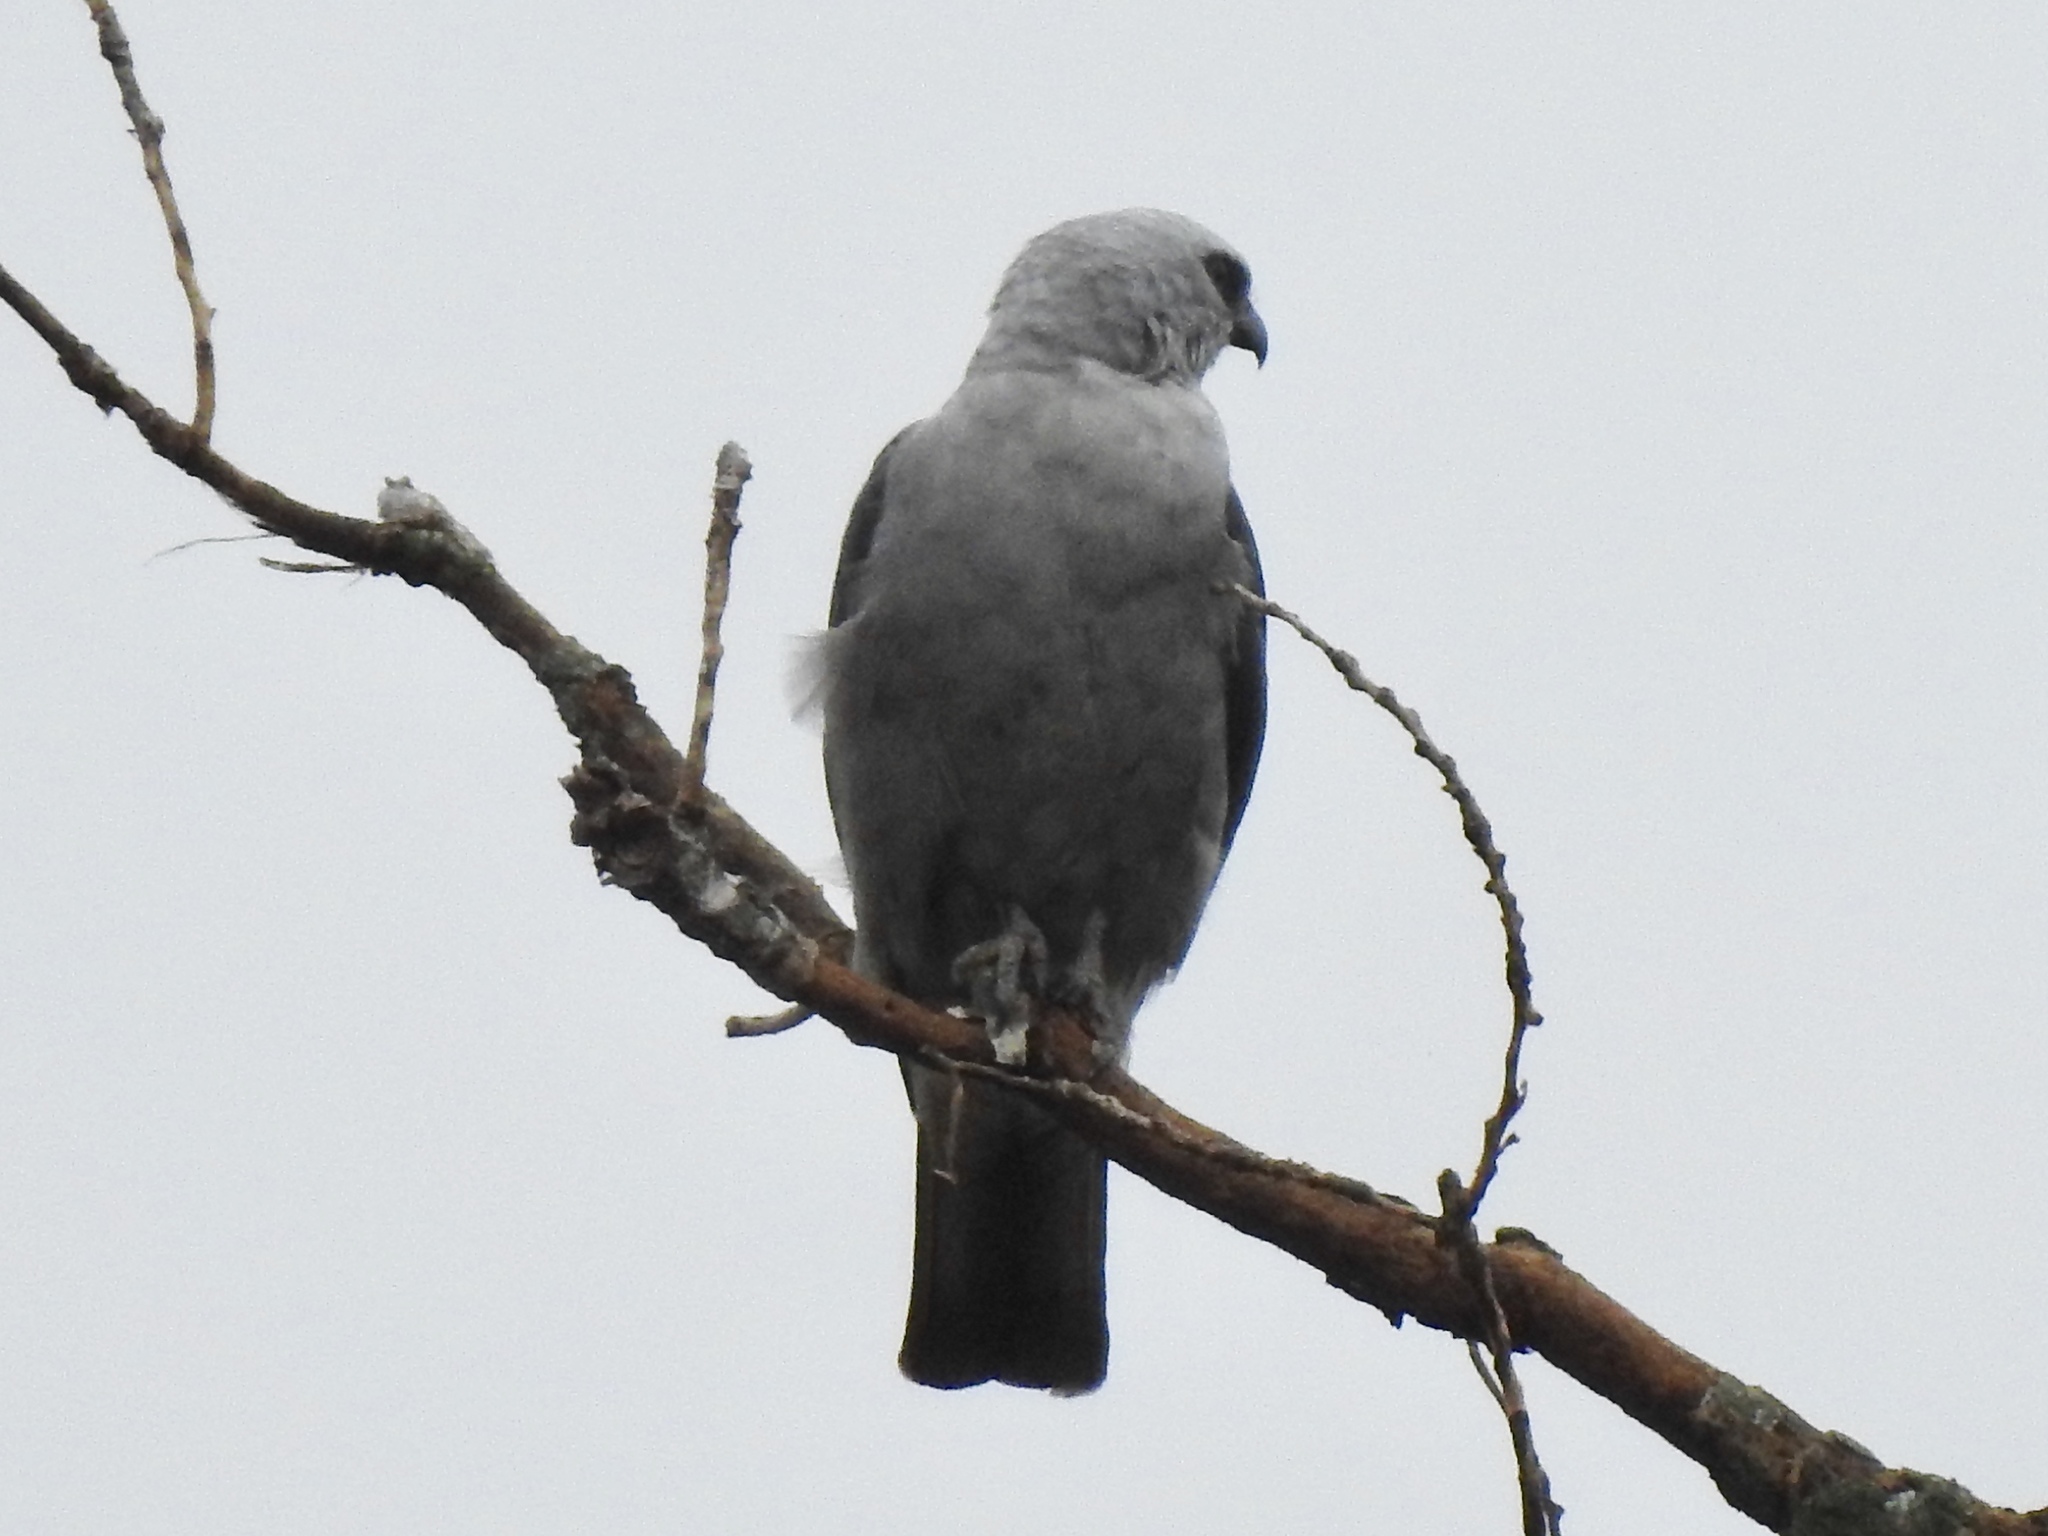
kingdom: Animalia
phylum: Chordata
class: Aves
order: Accipitriformes
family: Accipitridae
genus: Ictinia
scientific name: Ictinia mississippiensis
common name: Mississippi kite
